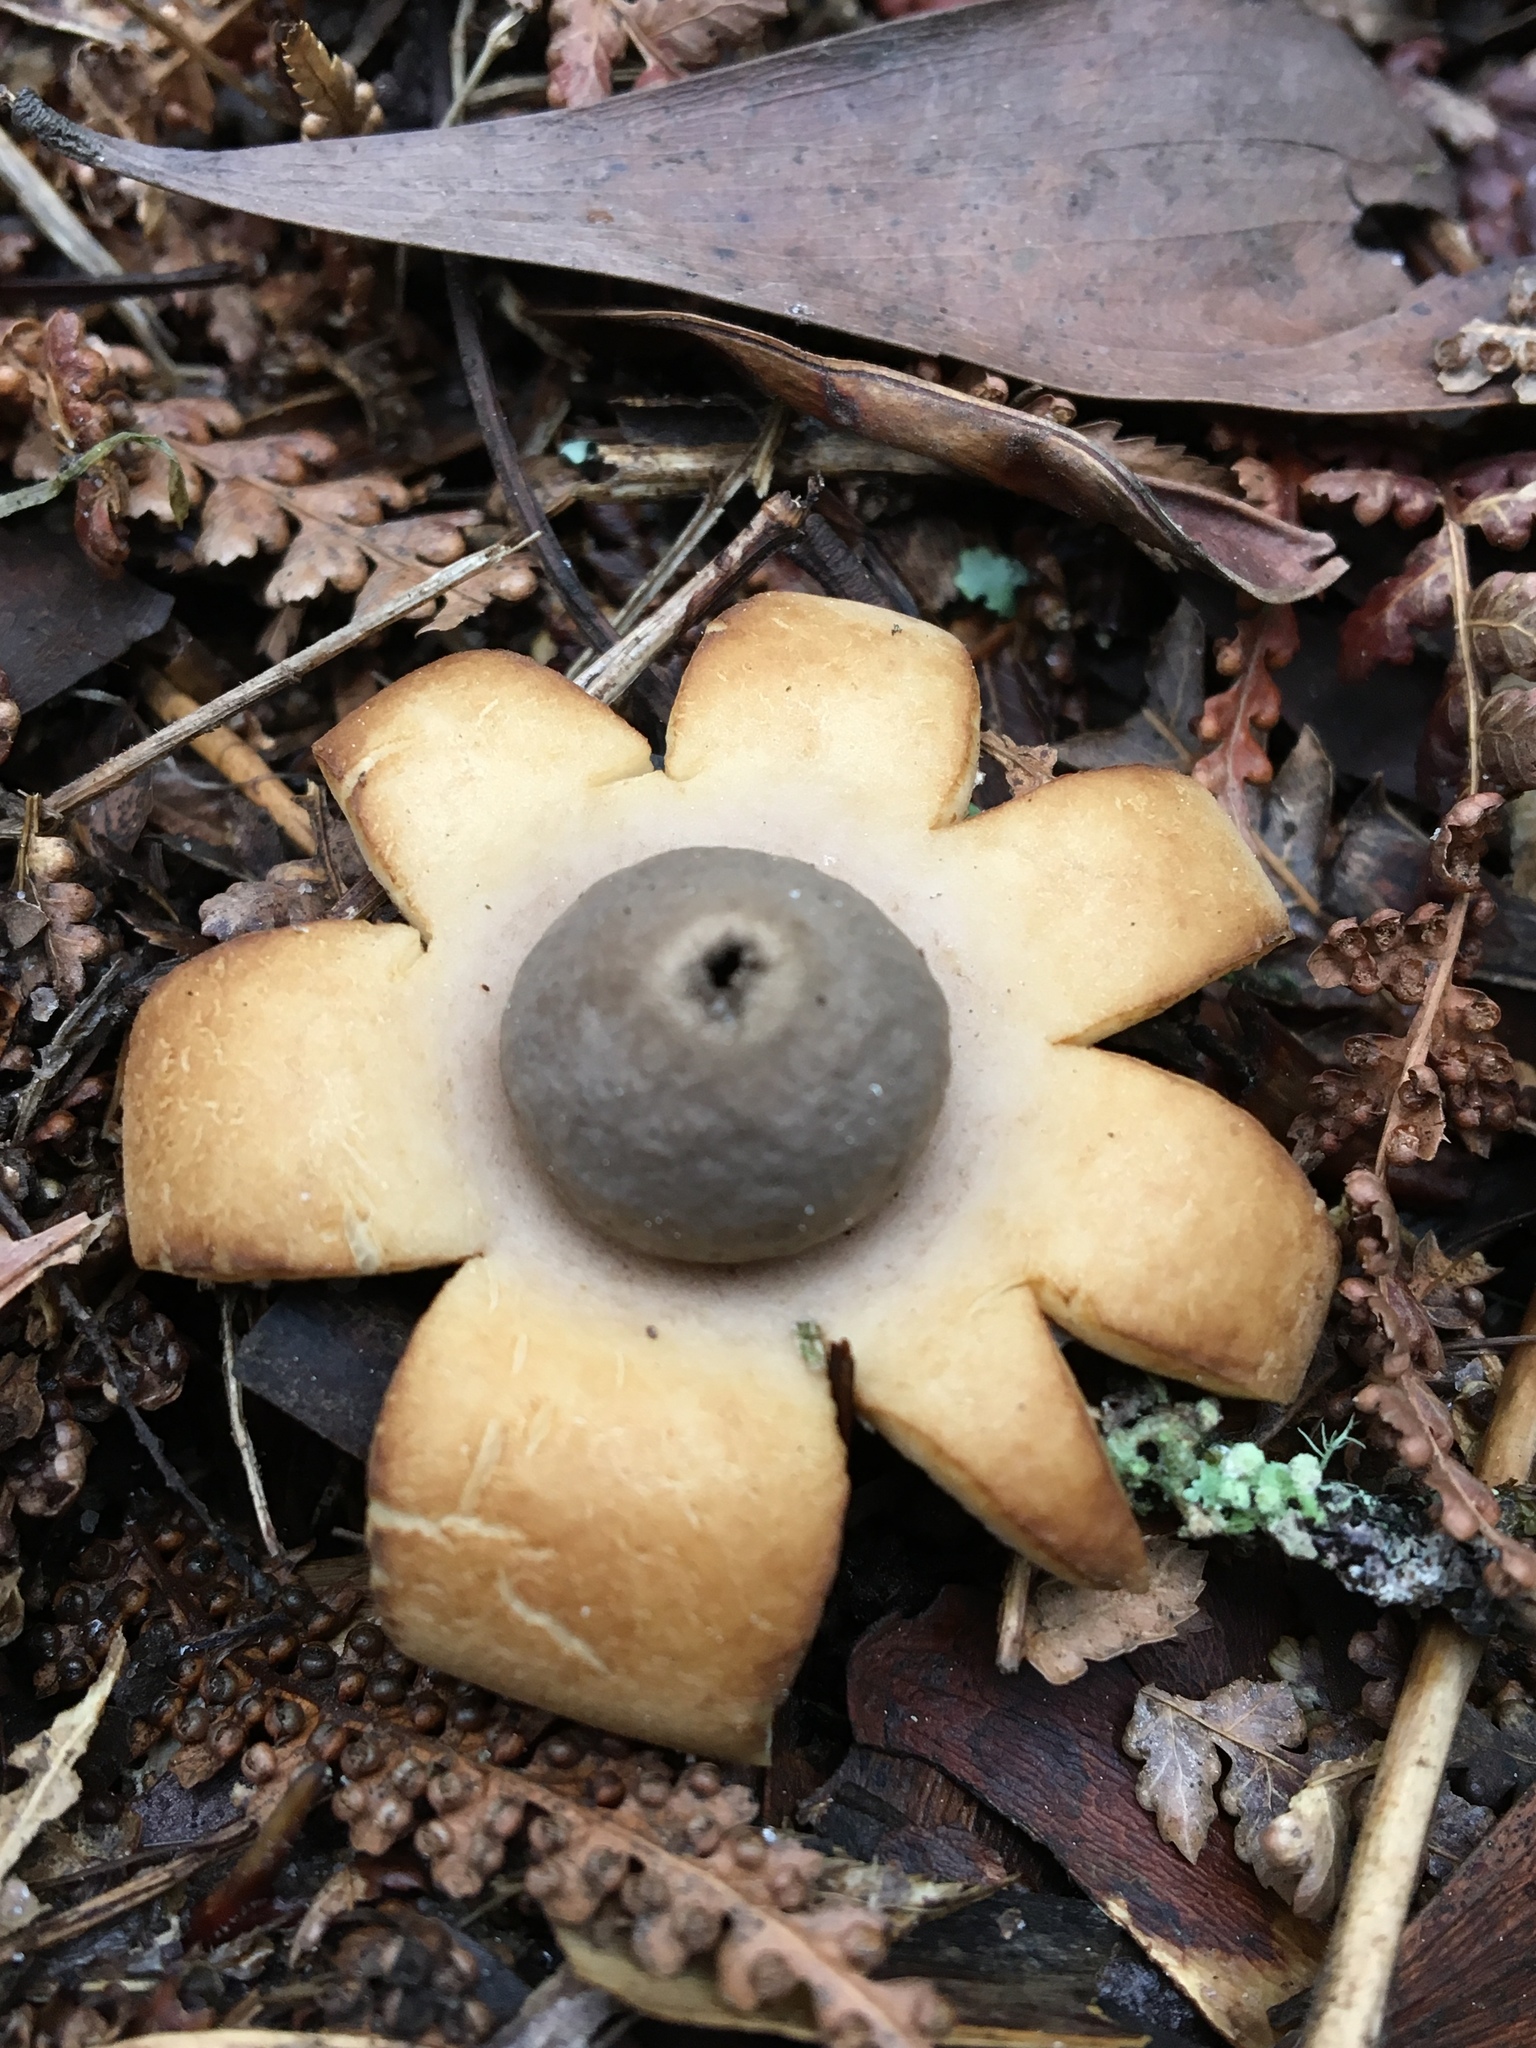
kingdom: Fungi
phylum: Basidiomycota
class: Agaricomycetes
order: Geastrales
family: Geastraceae
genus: Geastrum
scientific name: Geastrum triplex
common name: Collared earthstar
